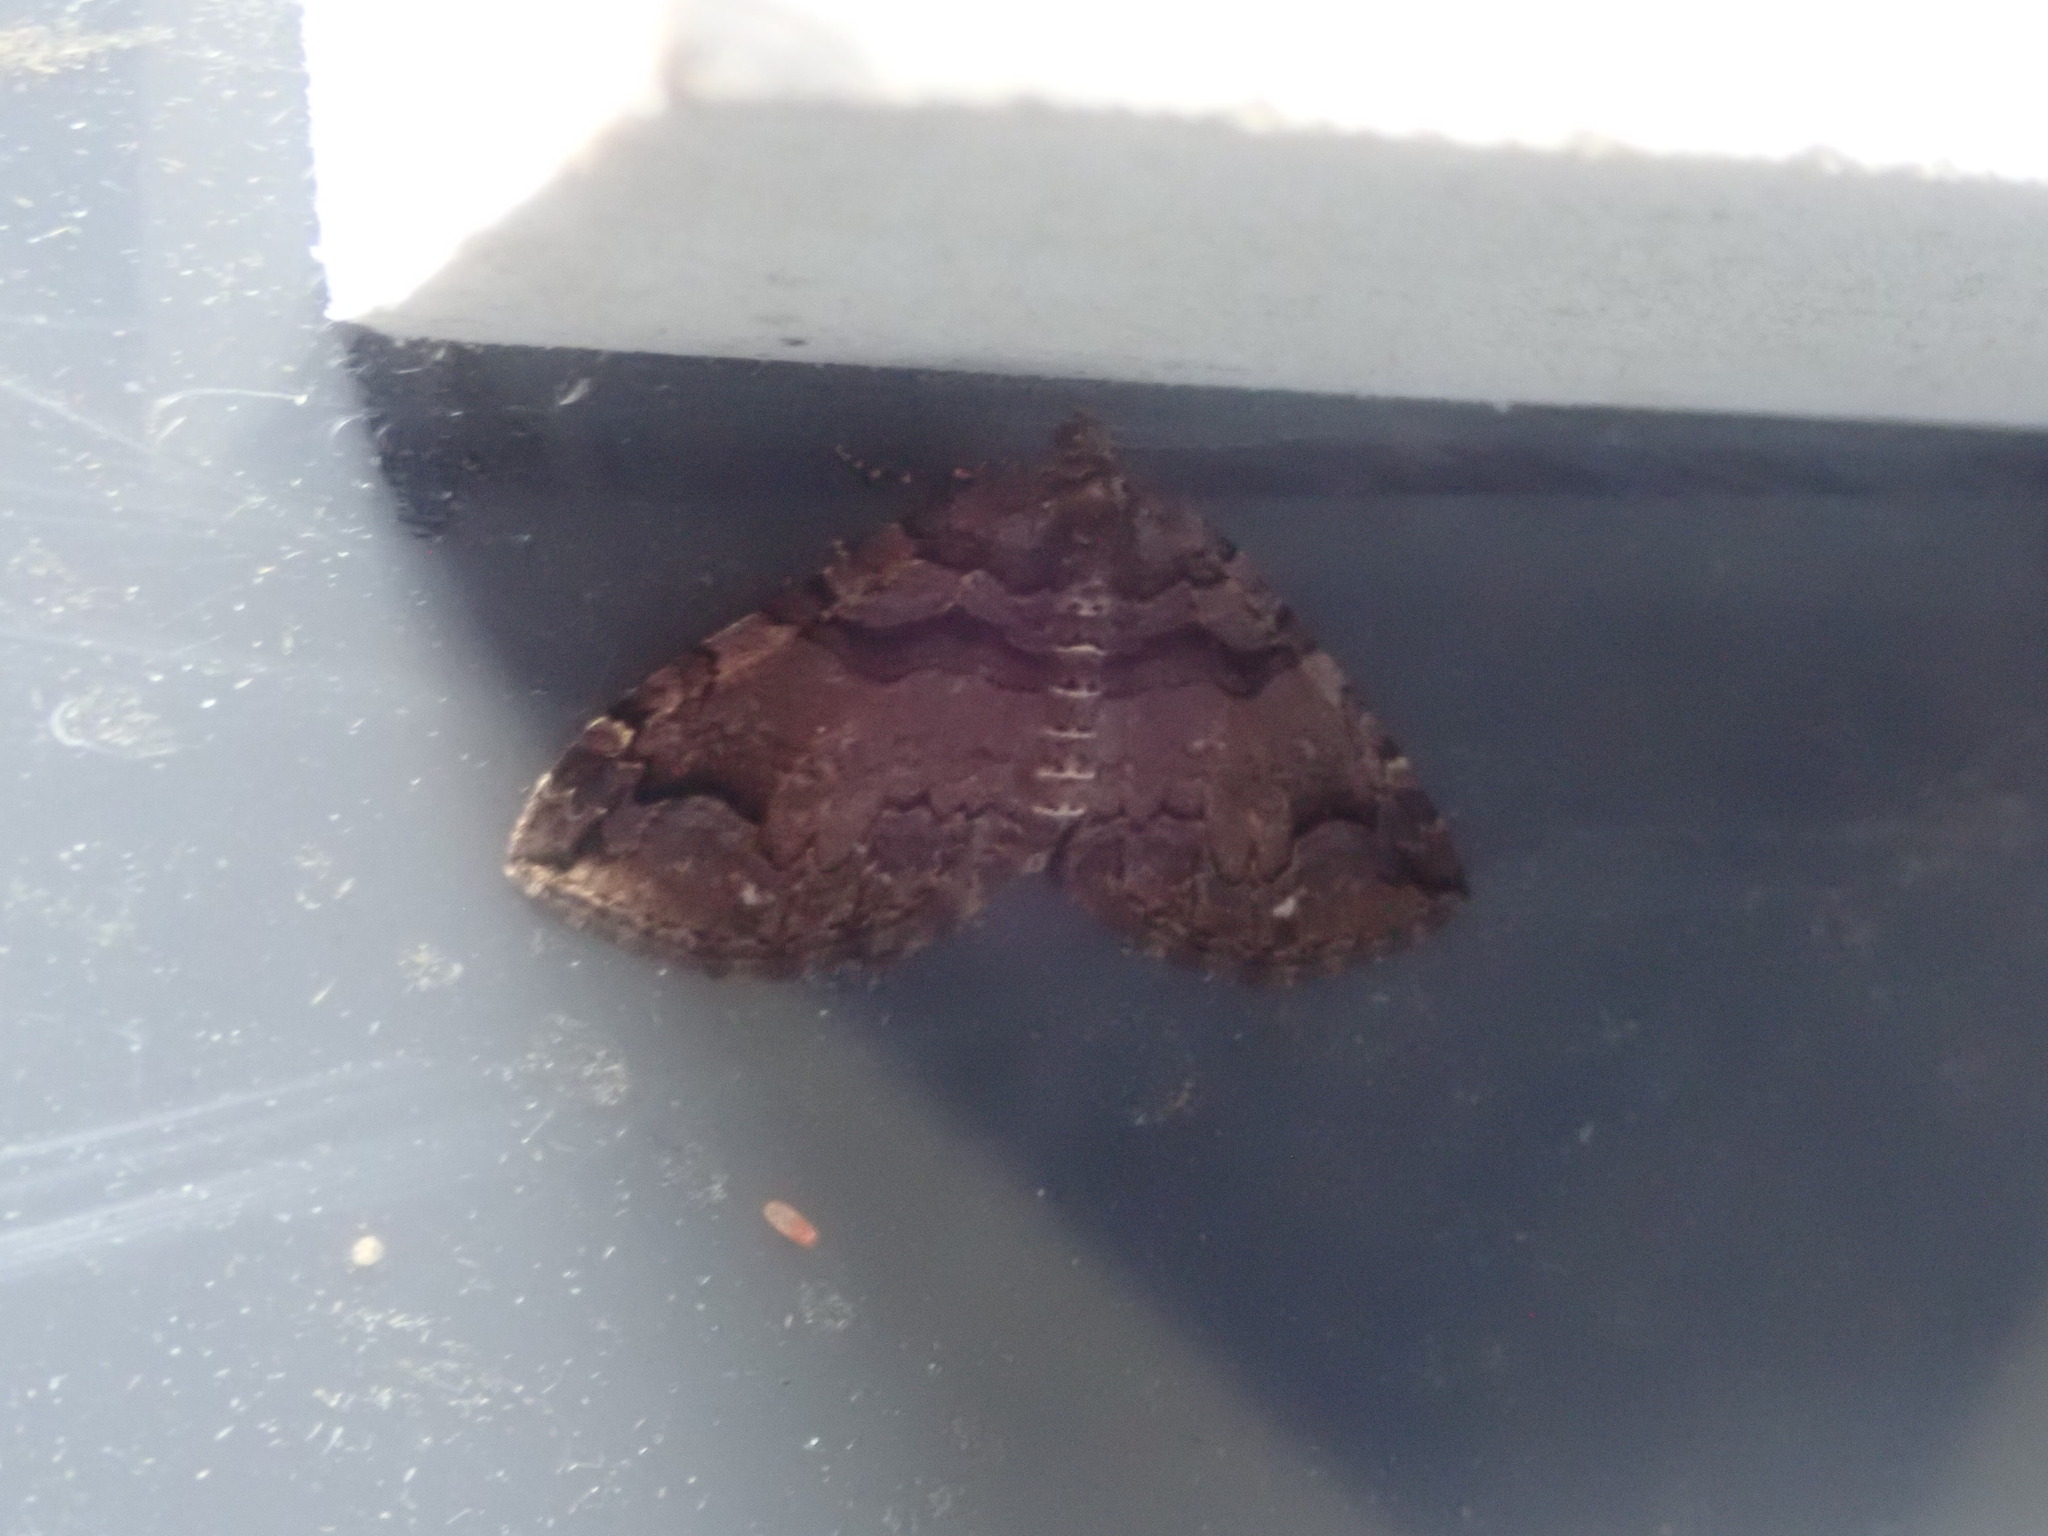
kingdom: Animalia
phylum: Arthropoda
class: Insecta
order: Lepidoptera
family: Geometridae
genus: Anticlea
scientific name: Anticlea vasiliata
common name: Variable carpet
